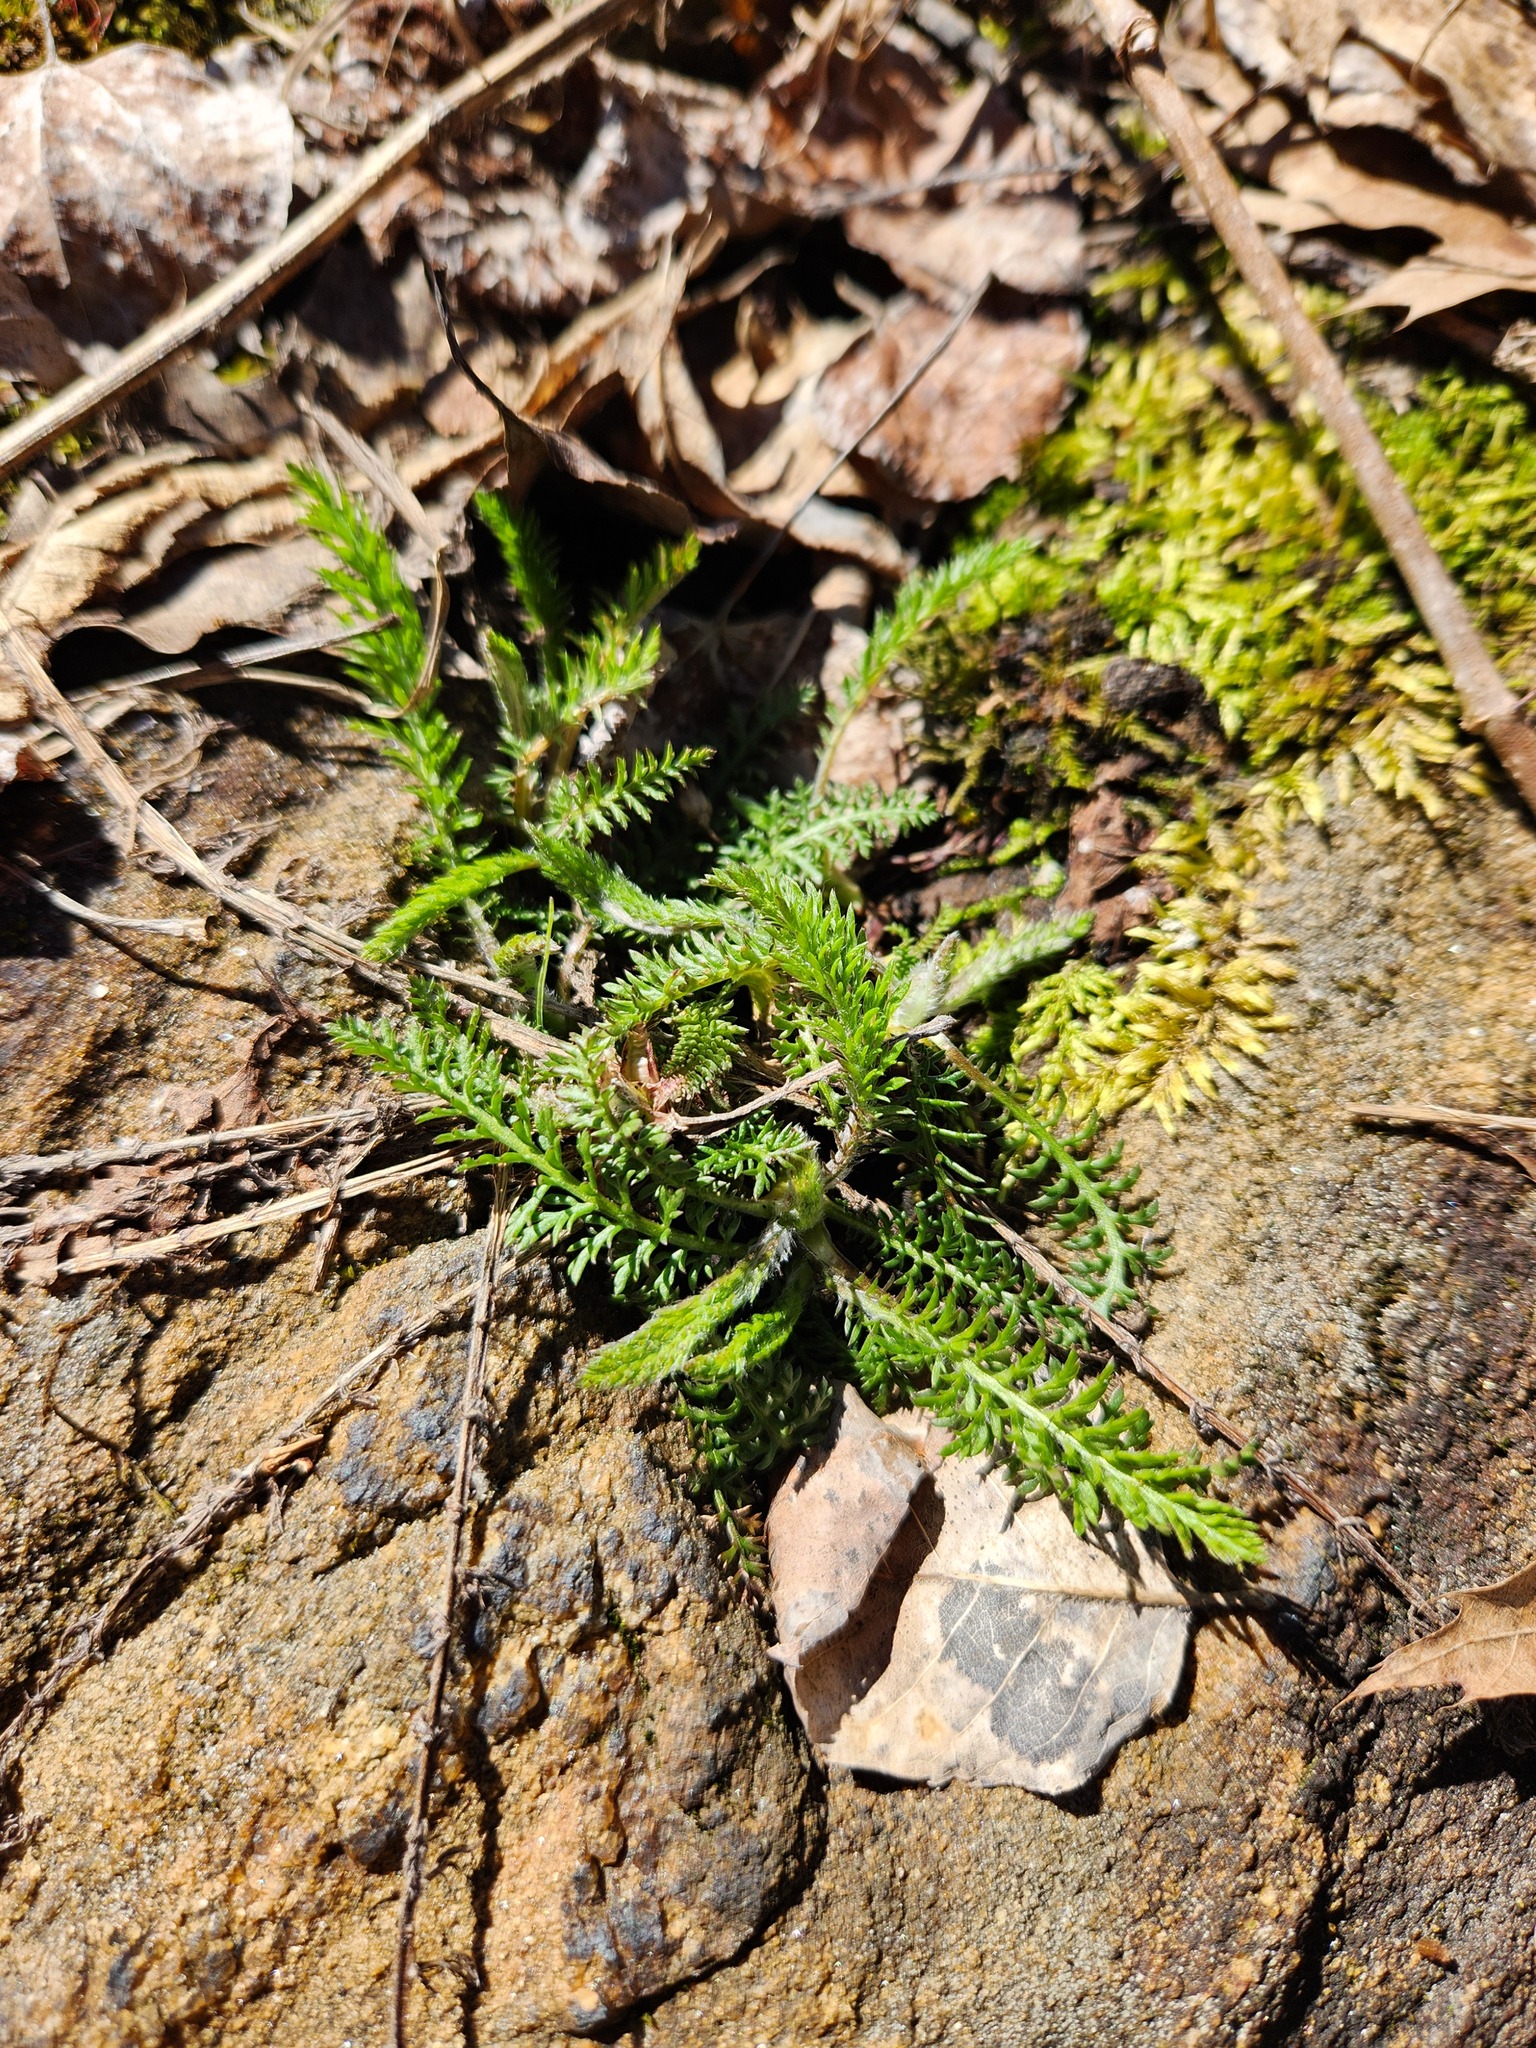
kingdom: Plantae
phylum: Tracheophyta
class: Magnoliopsida
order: Asterales
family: Asteraceae
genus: Achillea
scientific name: Achillea millefolium
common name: Yarrow
